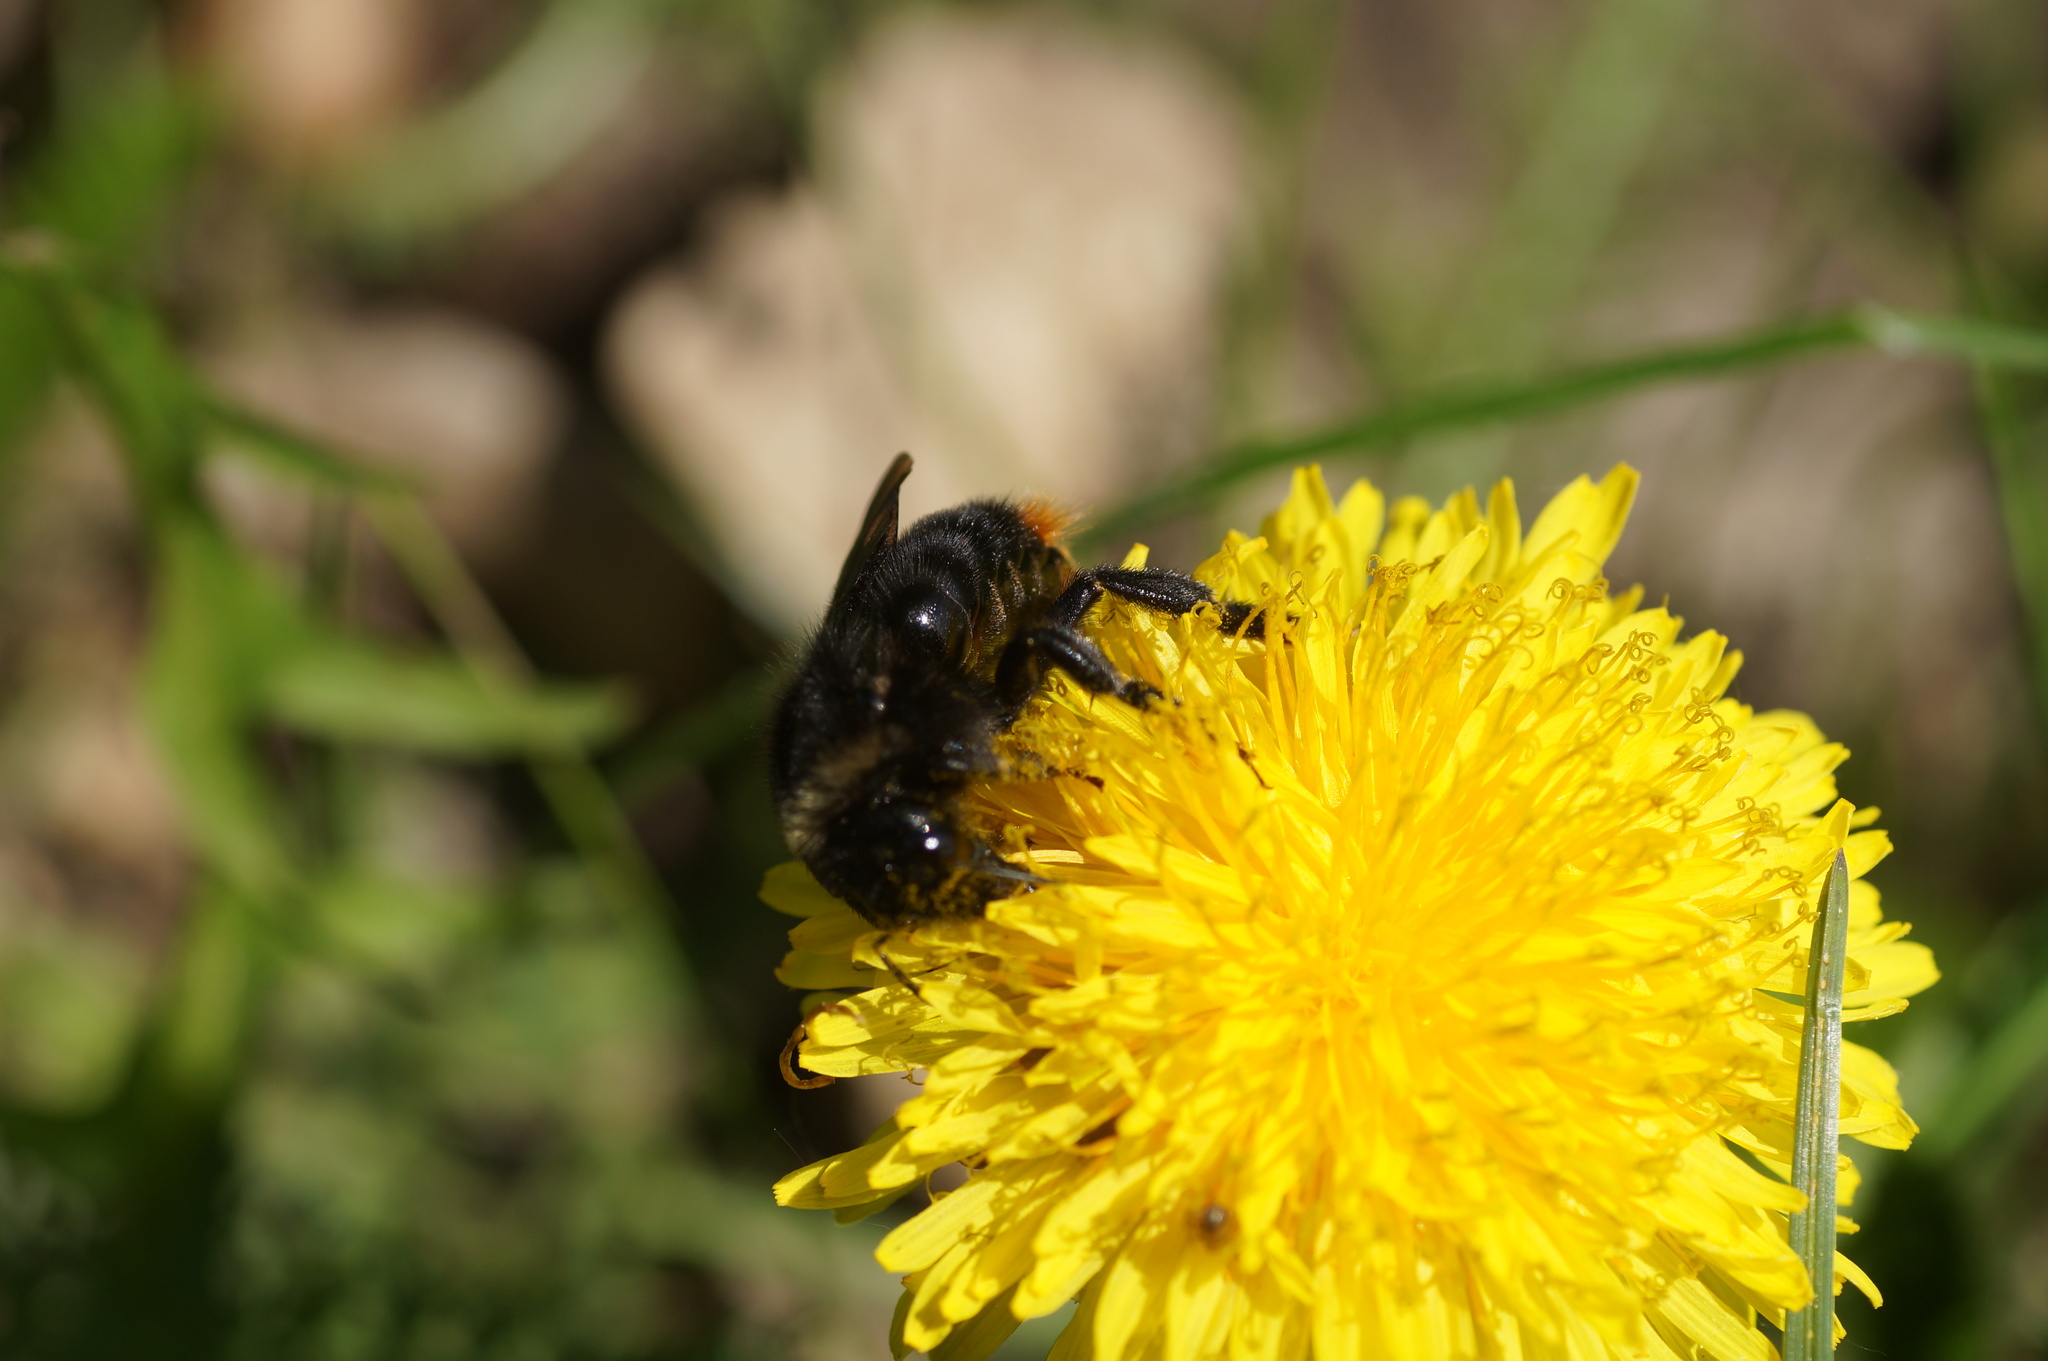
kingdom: Animalia
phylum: Arthropoda
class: Insecta
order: Hymenoptera
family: Apidae
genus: Bombus
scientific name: Bombus rupestris
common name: Hill cuckoo-bee
